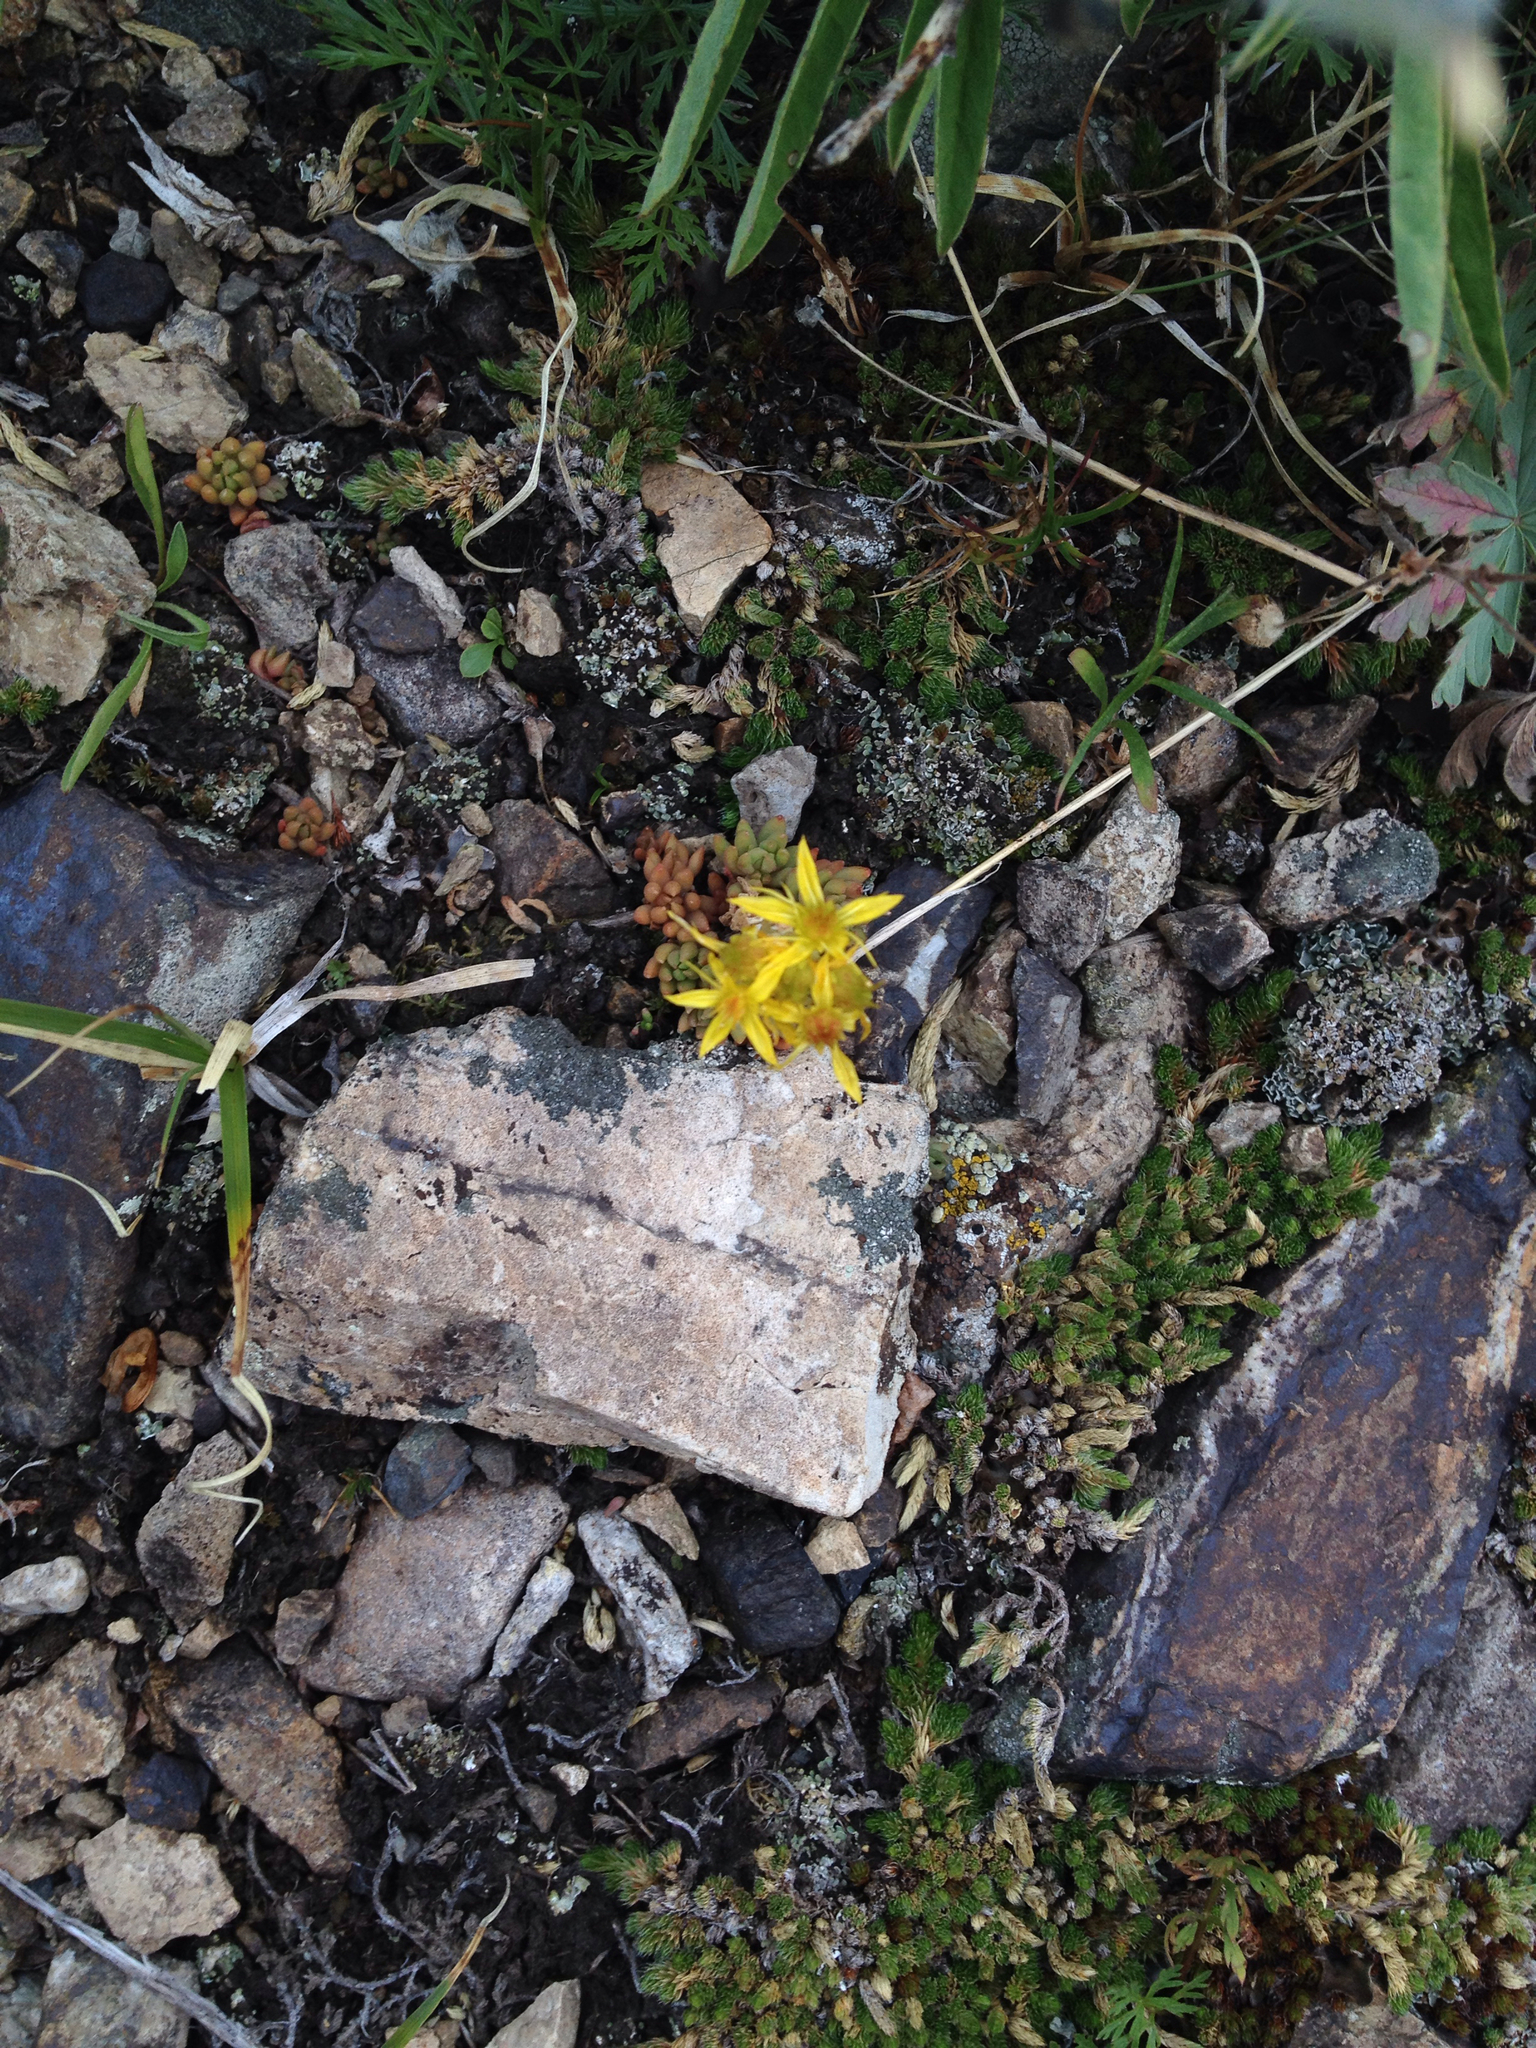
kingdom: Plantae
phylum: Tracheophyta
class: Magnoliopsida
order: Saxifragales
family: Crassulaceae
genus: Sedum
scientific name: Sedum lanceolatum
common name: Common stonecrop
